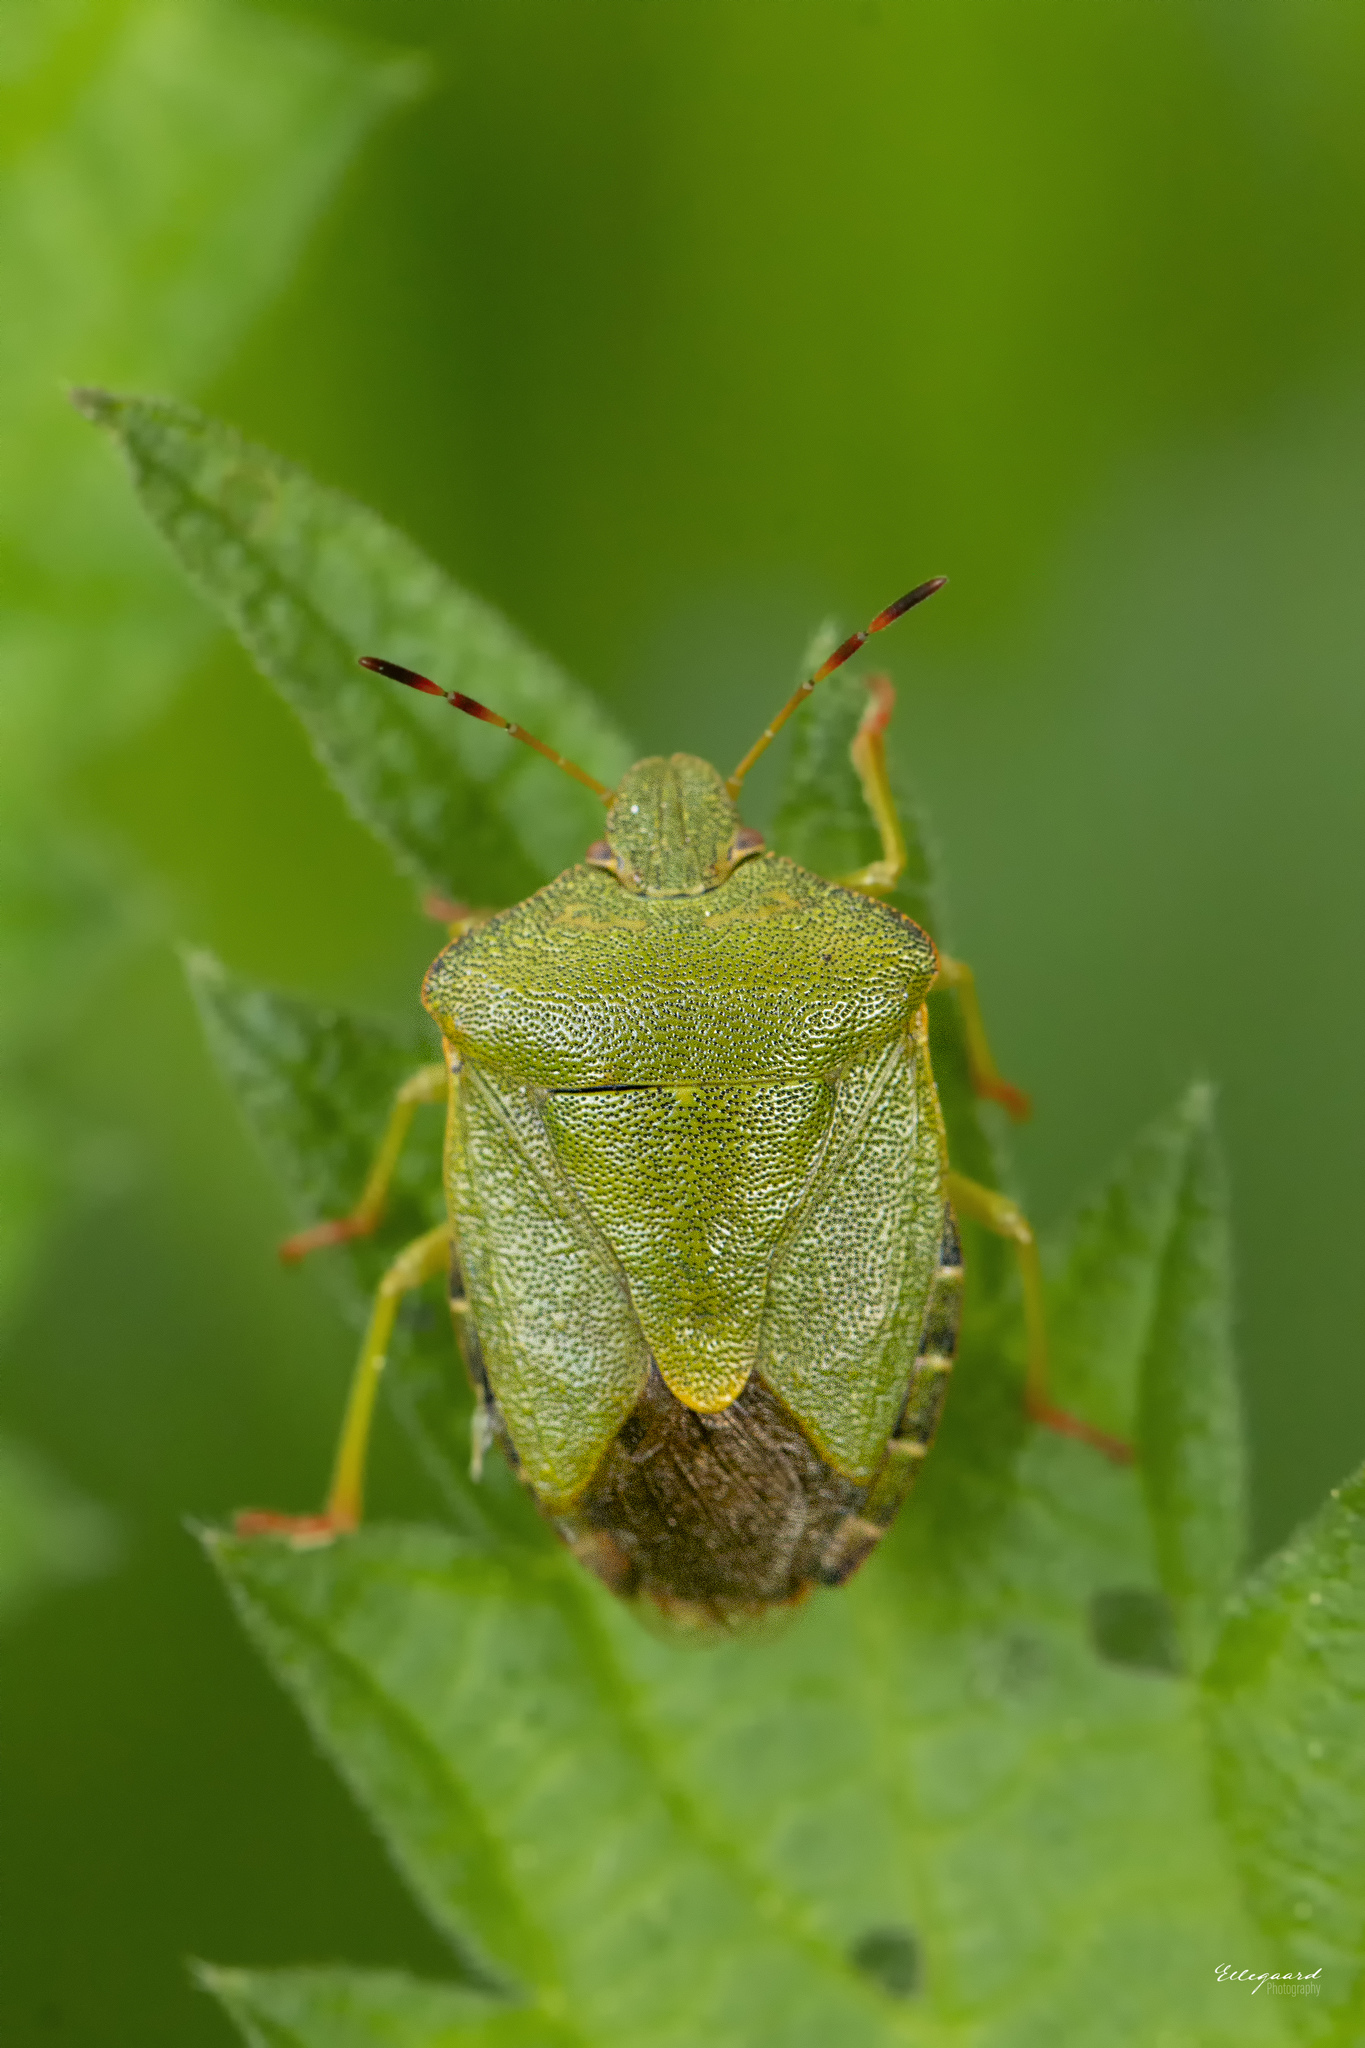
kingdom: Animalia
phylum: Arthropoda
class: Insecta
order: Hemiptera
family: Pentatomidae
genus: Palomena
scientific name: Palomena prasina
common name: Green shieldbug
